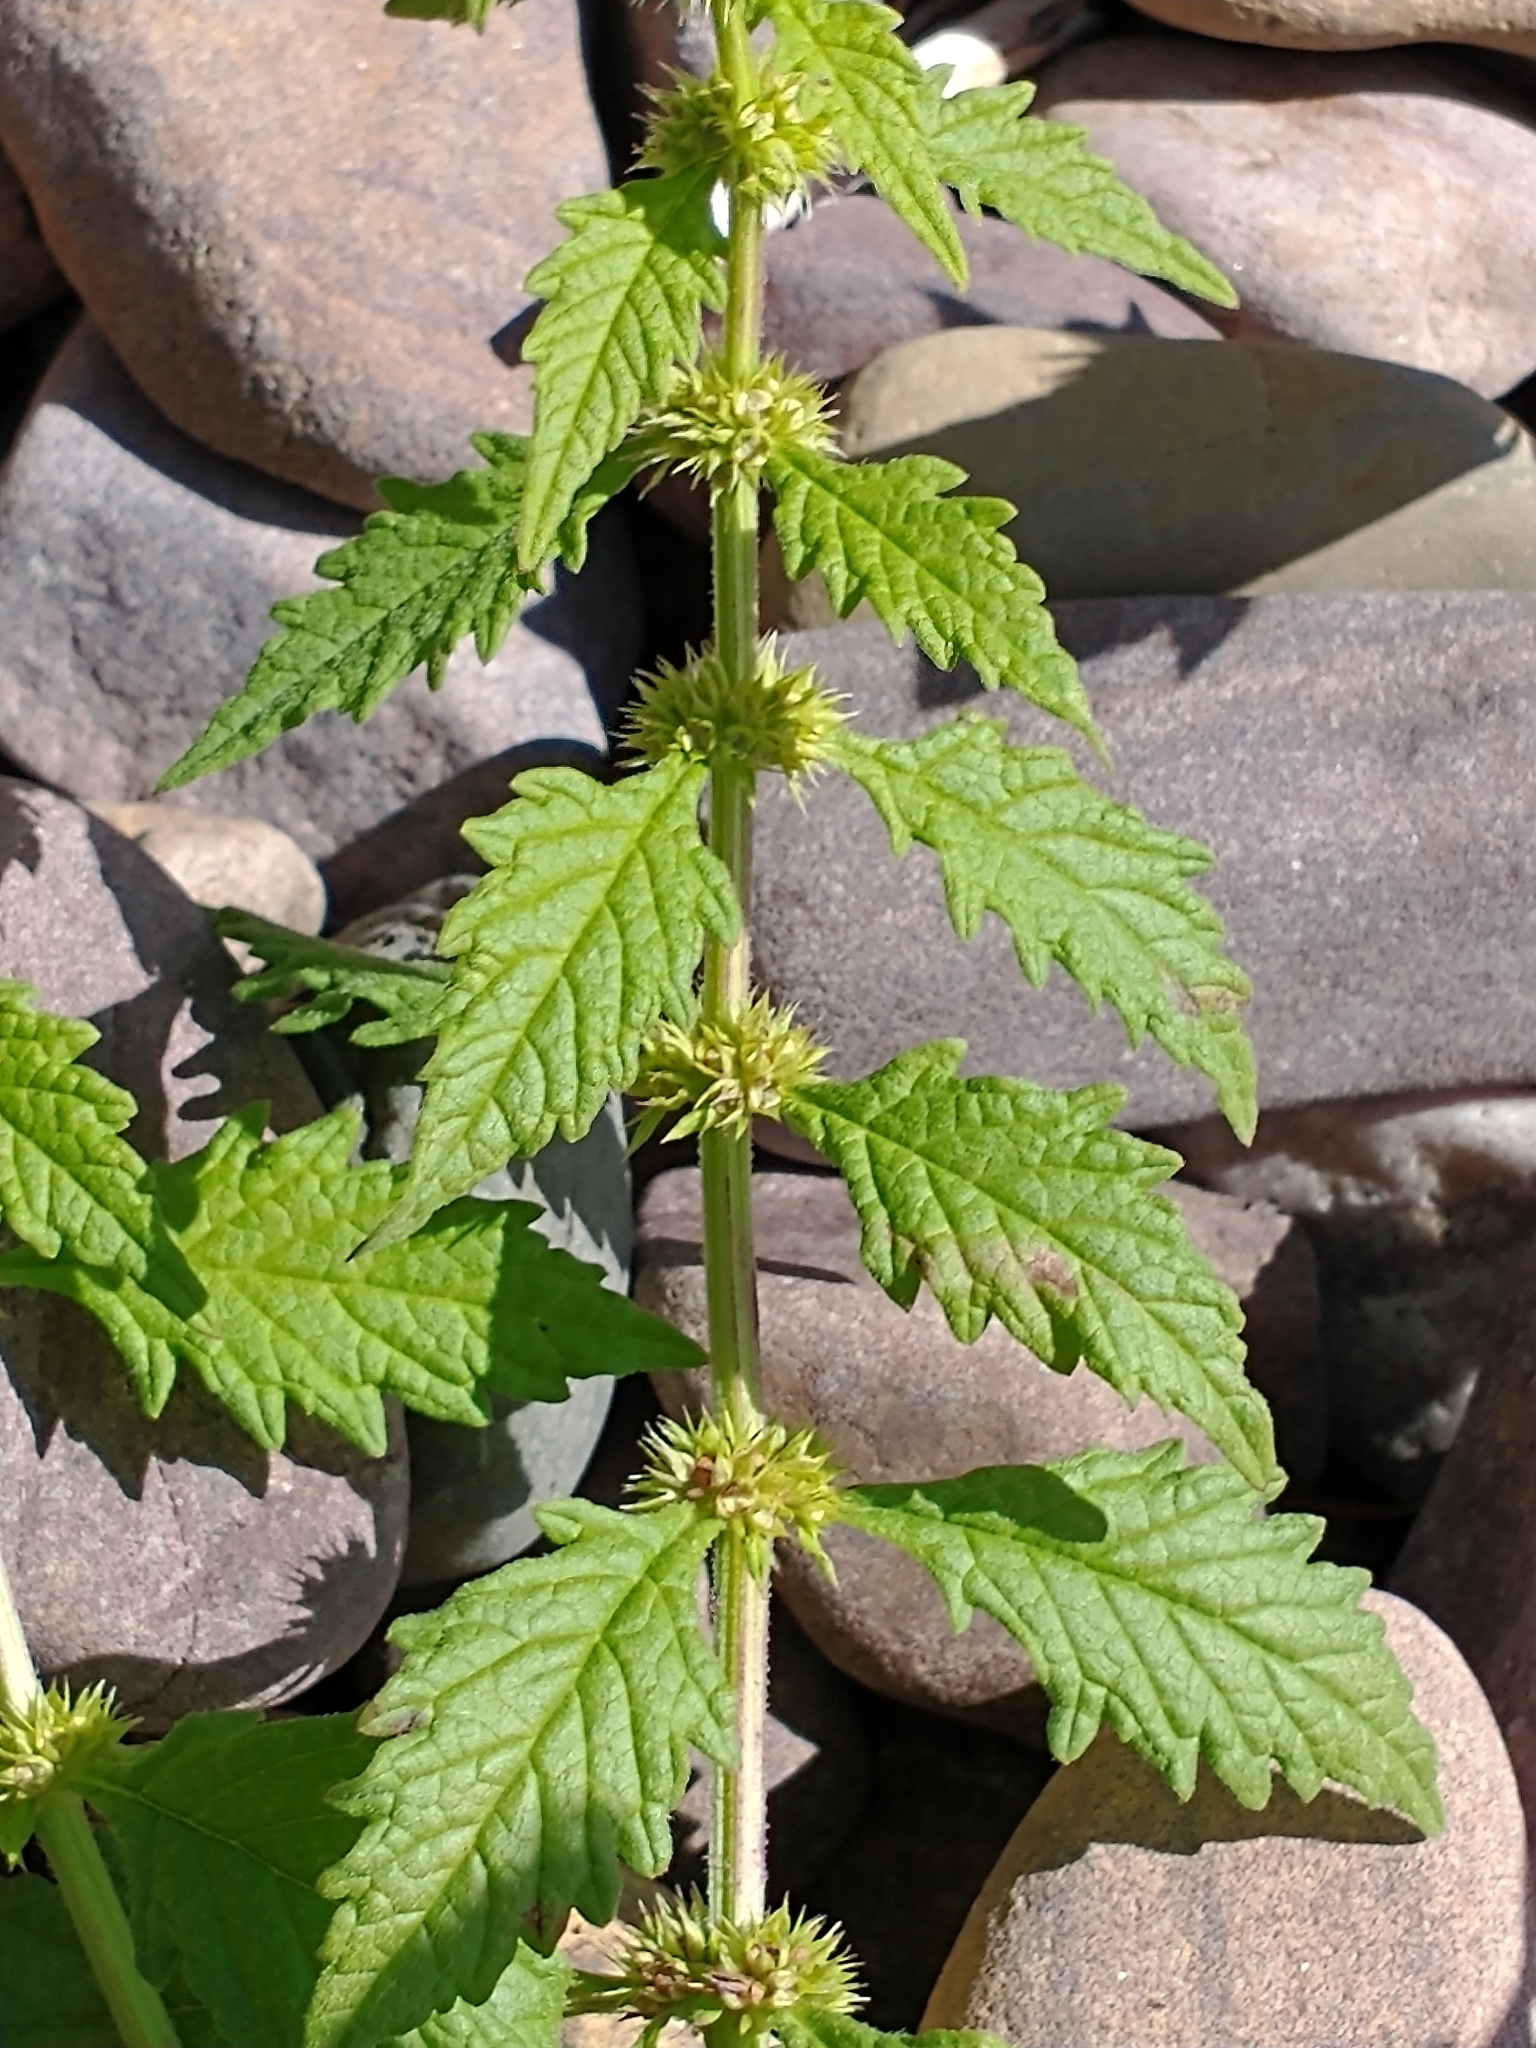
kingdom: Plantae
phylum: Tracheophyta
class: Magnoliopsida
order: Lamiales
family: Lamiaceae
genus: Lycopus
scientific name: Lycopus europaeus
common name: European bugleweed
